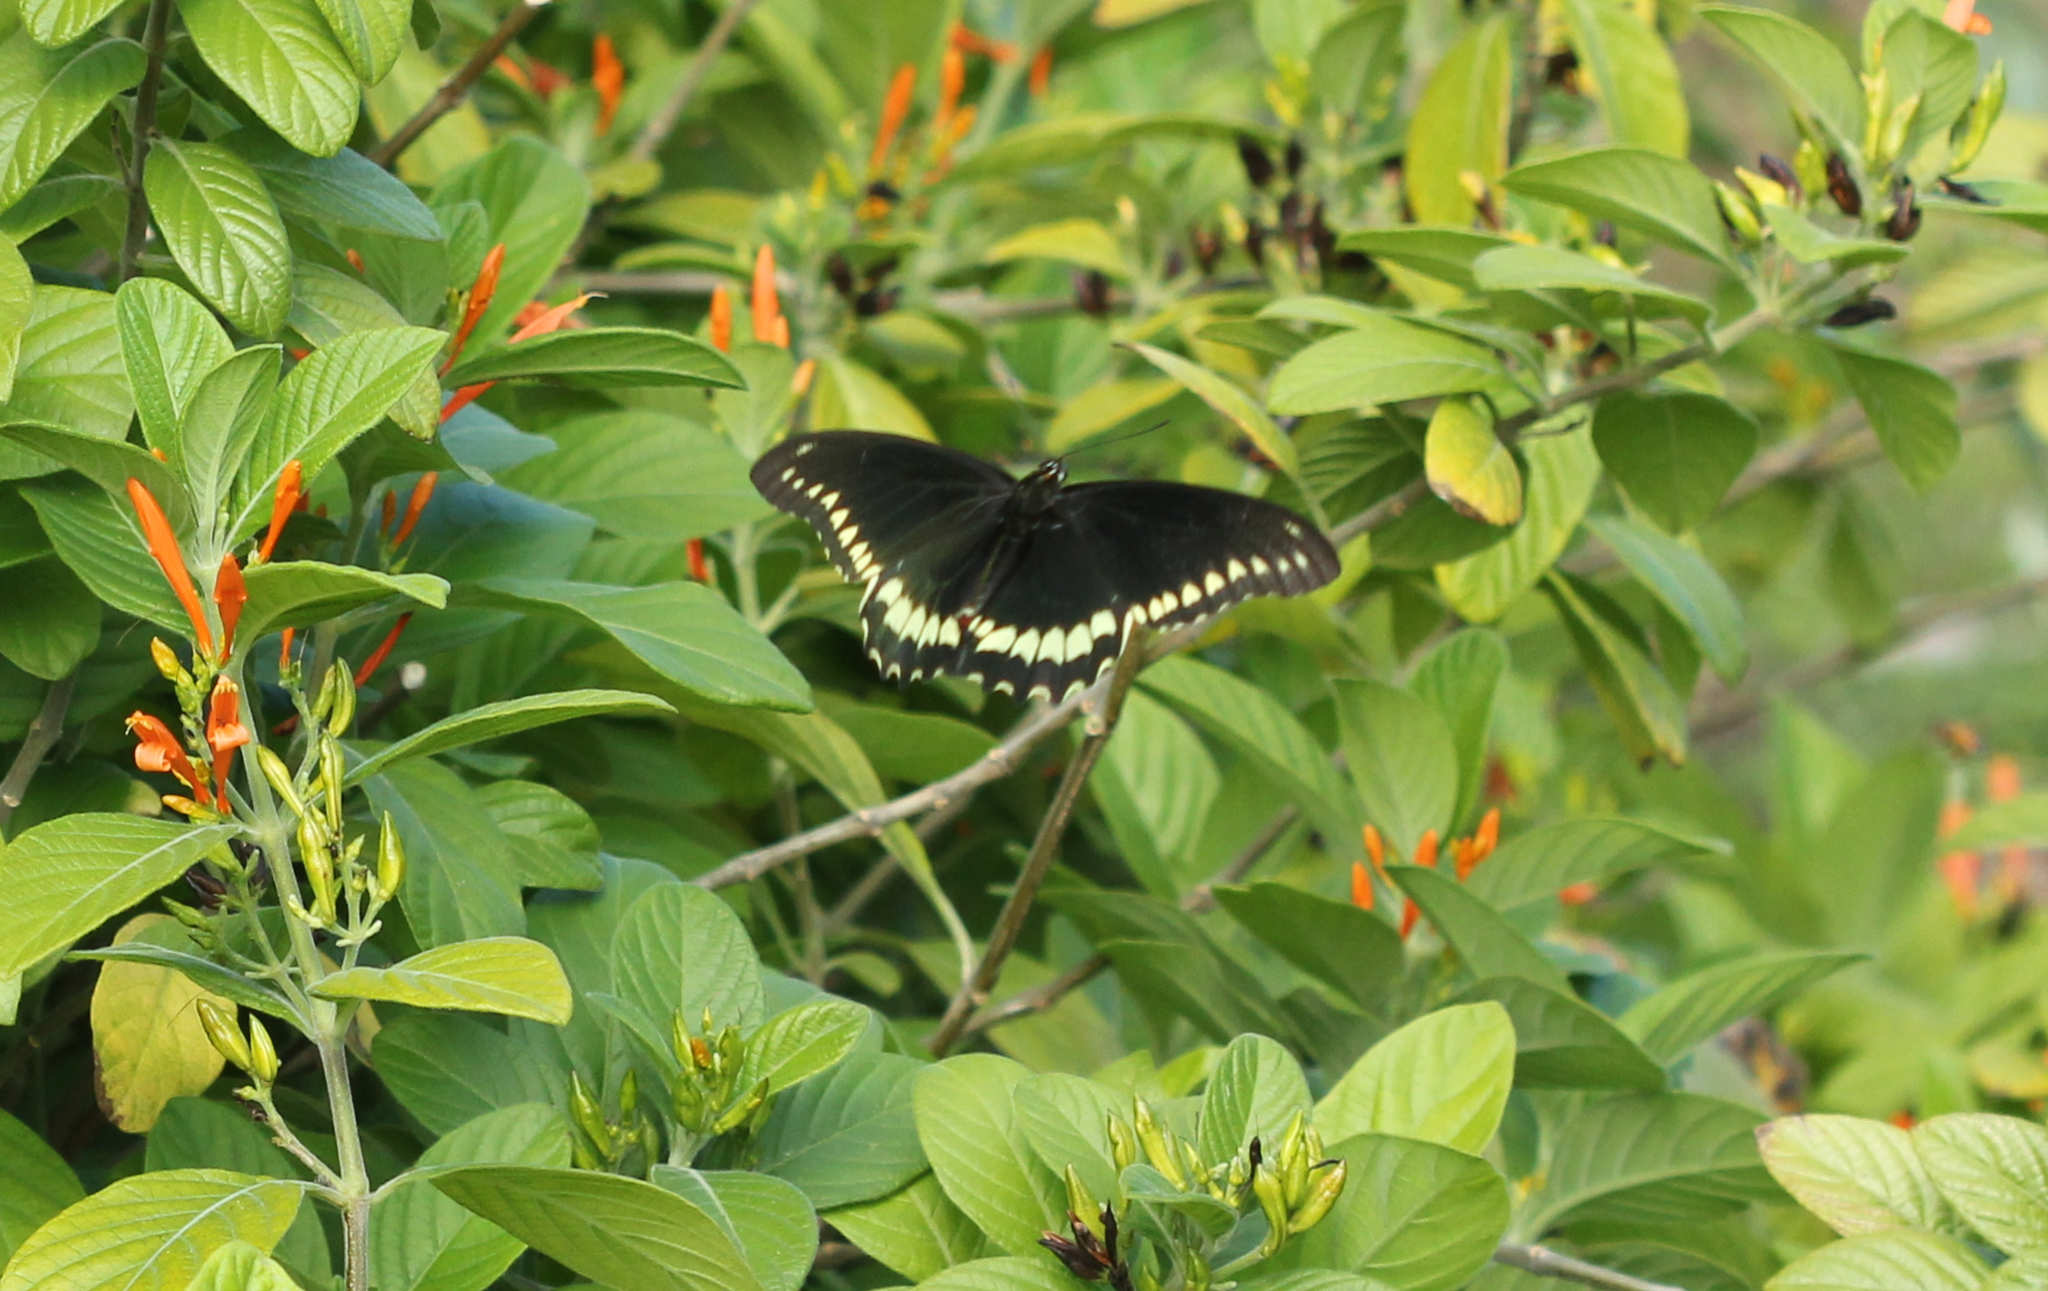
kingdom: Animalia
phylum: Arthropoda
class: Insecta
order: Lepidoptera
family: Papilionidae
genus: Battus
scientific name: Battus polydamas
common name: Polydamas swallowtail
